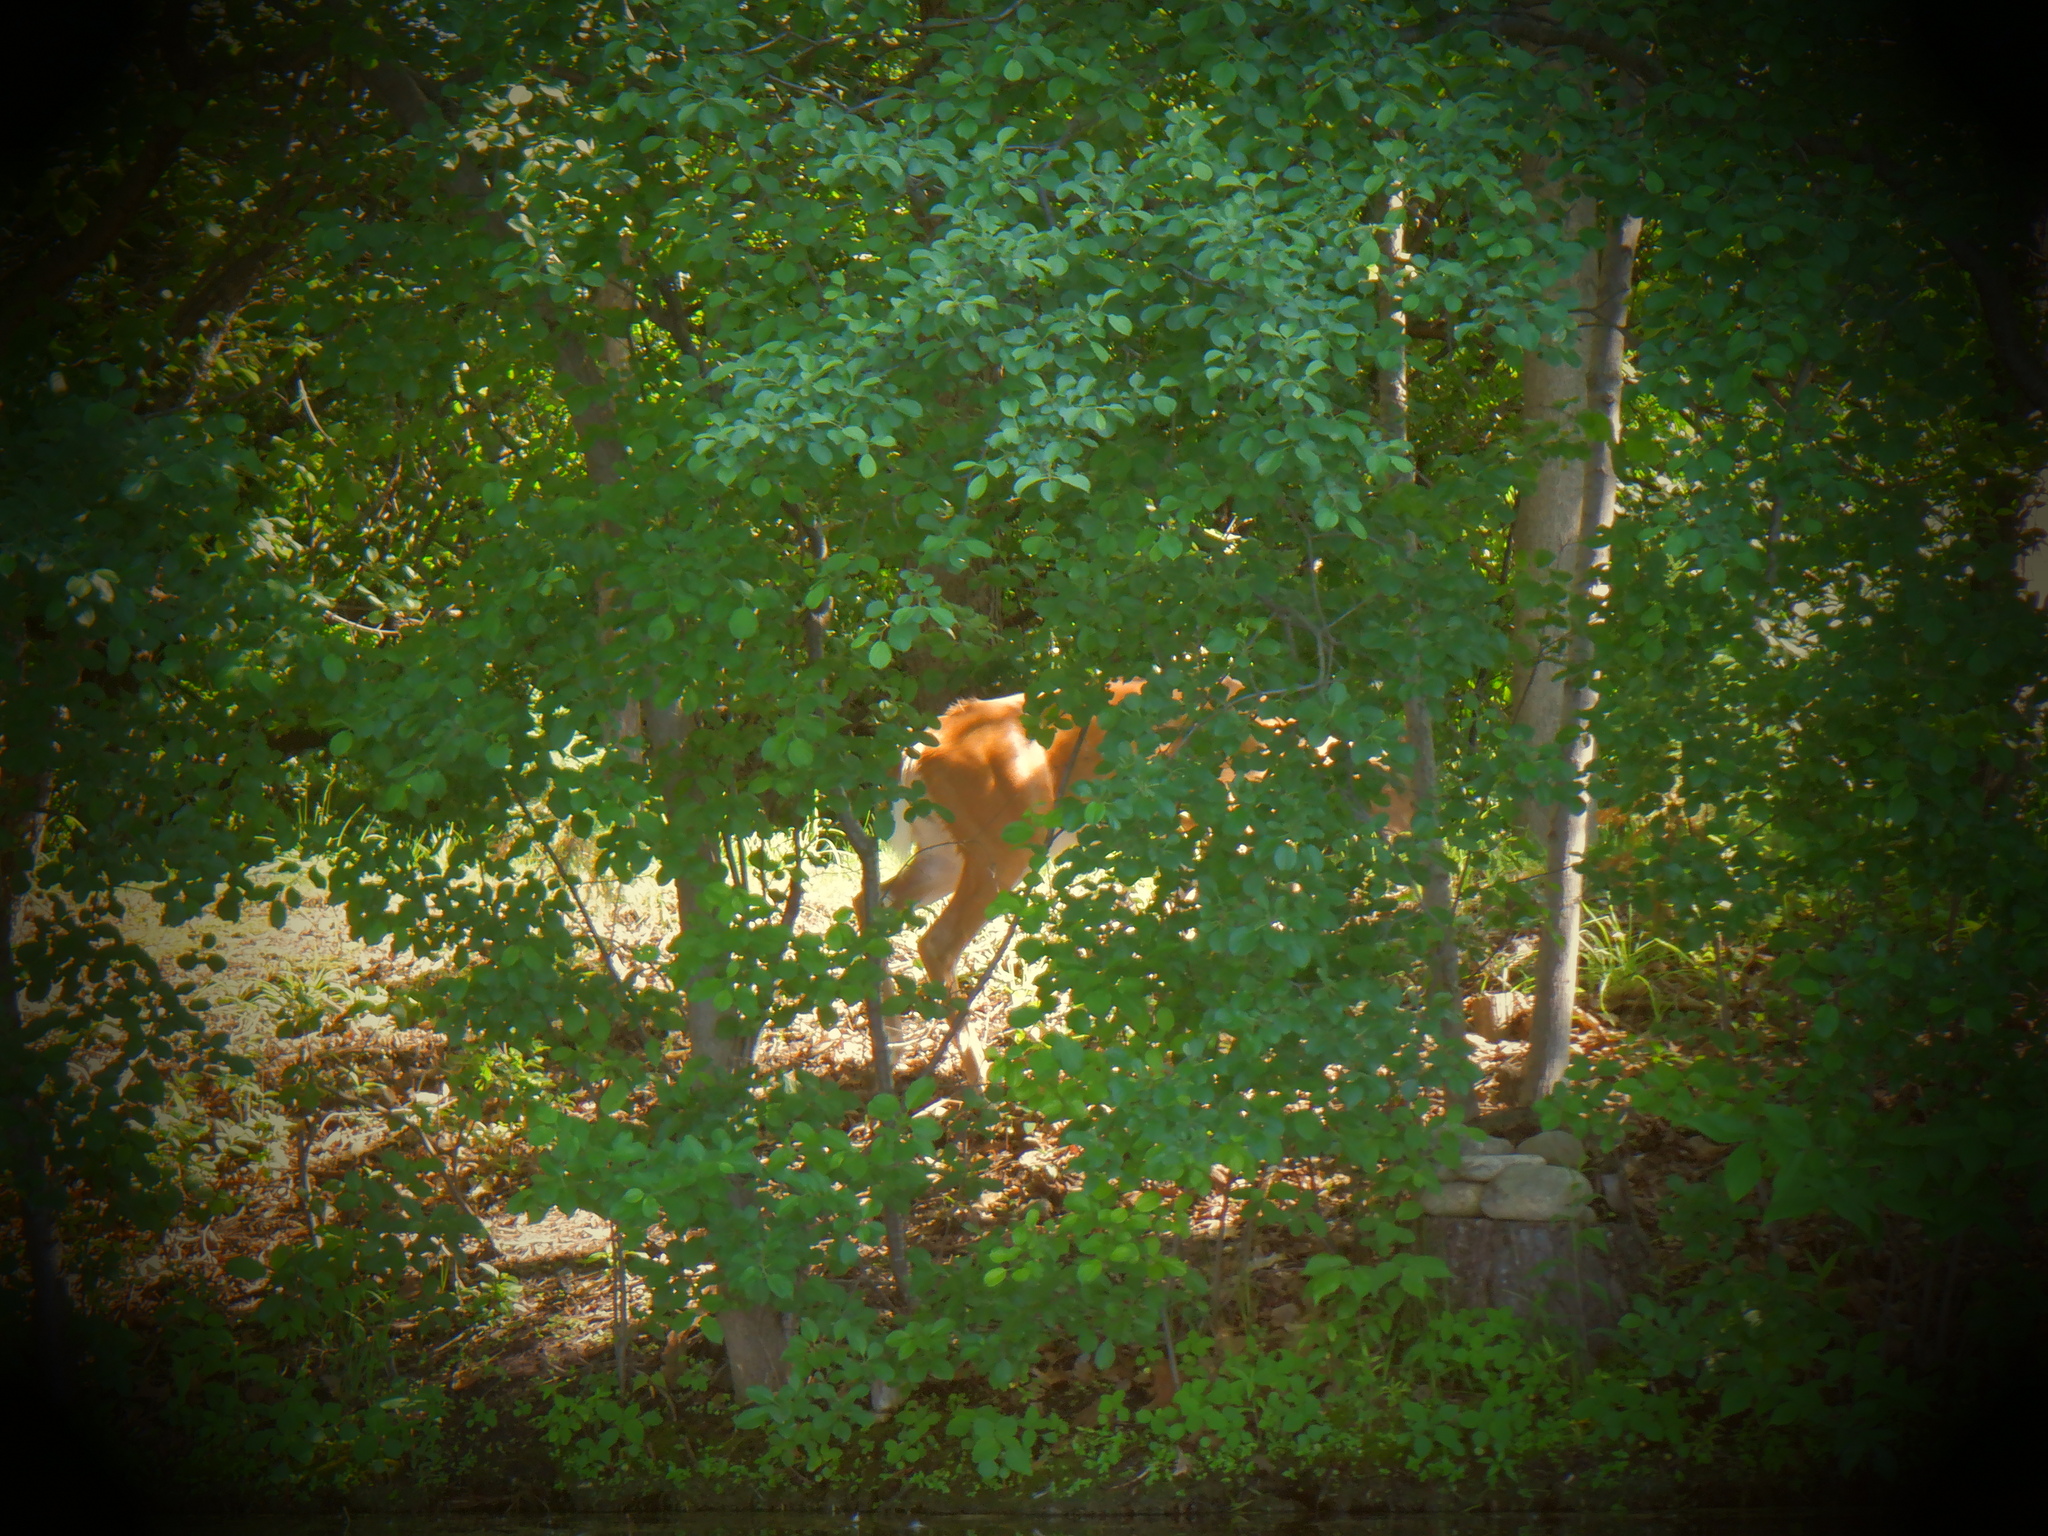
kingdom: Animalia
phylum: Chordata
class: Mammalia
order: Artiodactyla
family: Cervidae
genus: Odocoileus
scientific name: Odocoileus virginianus
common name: White-tailed deer
